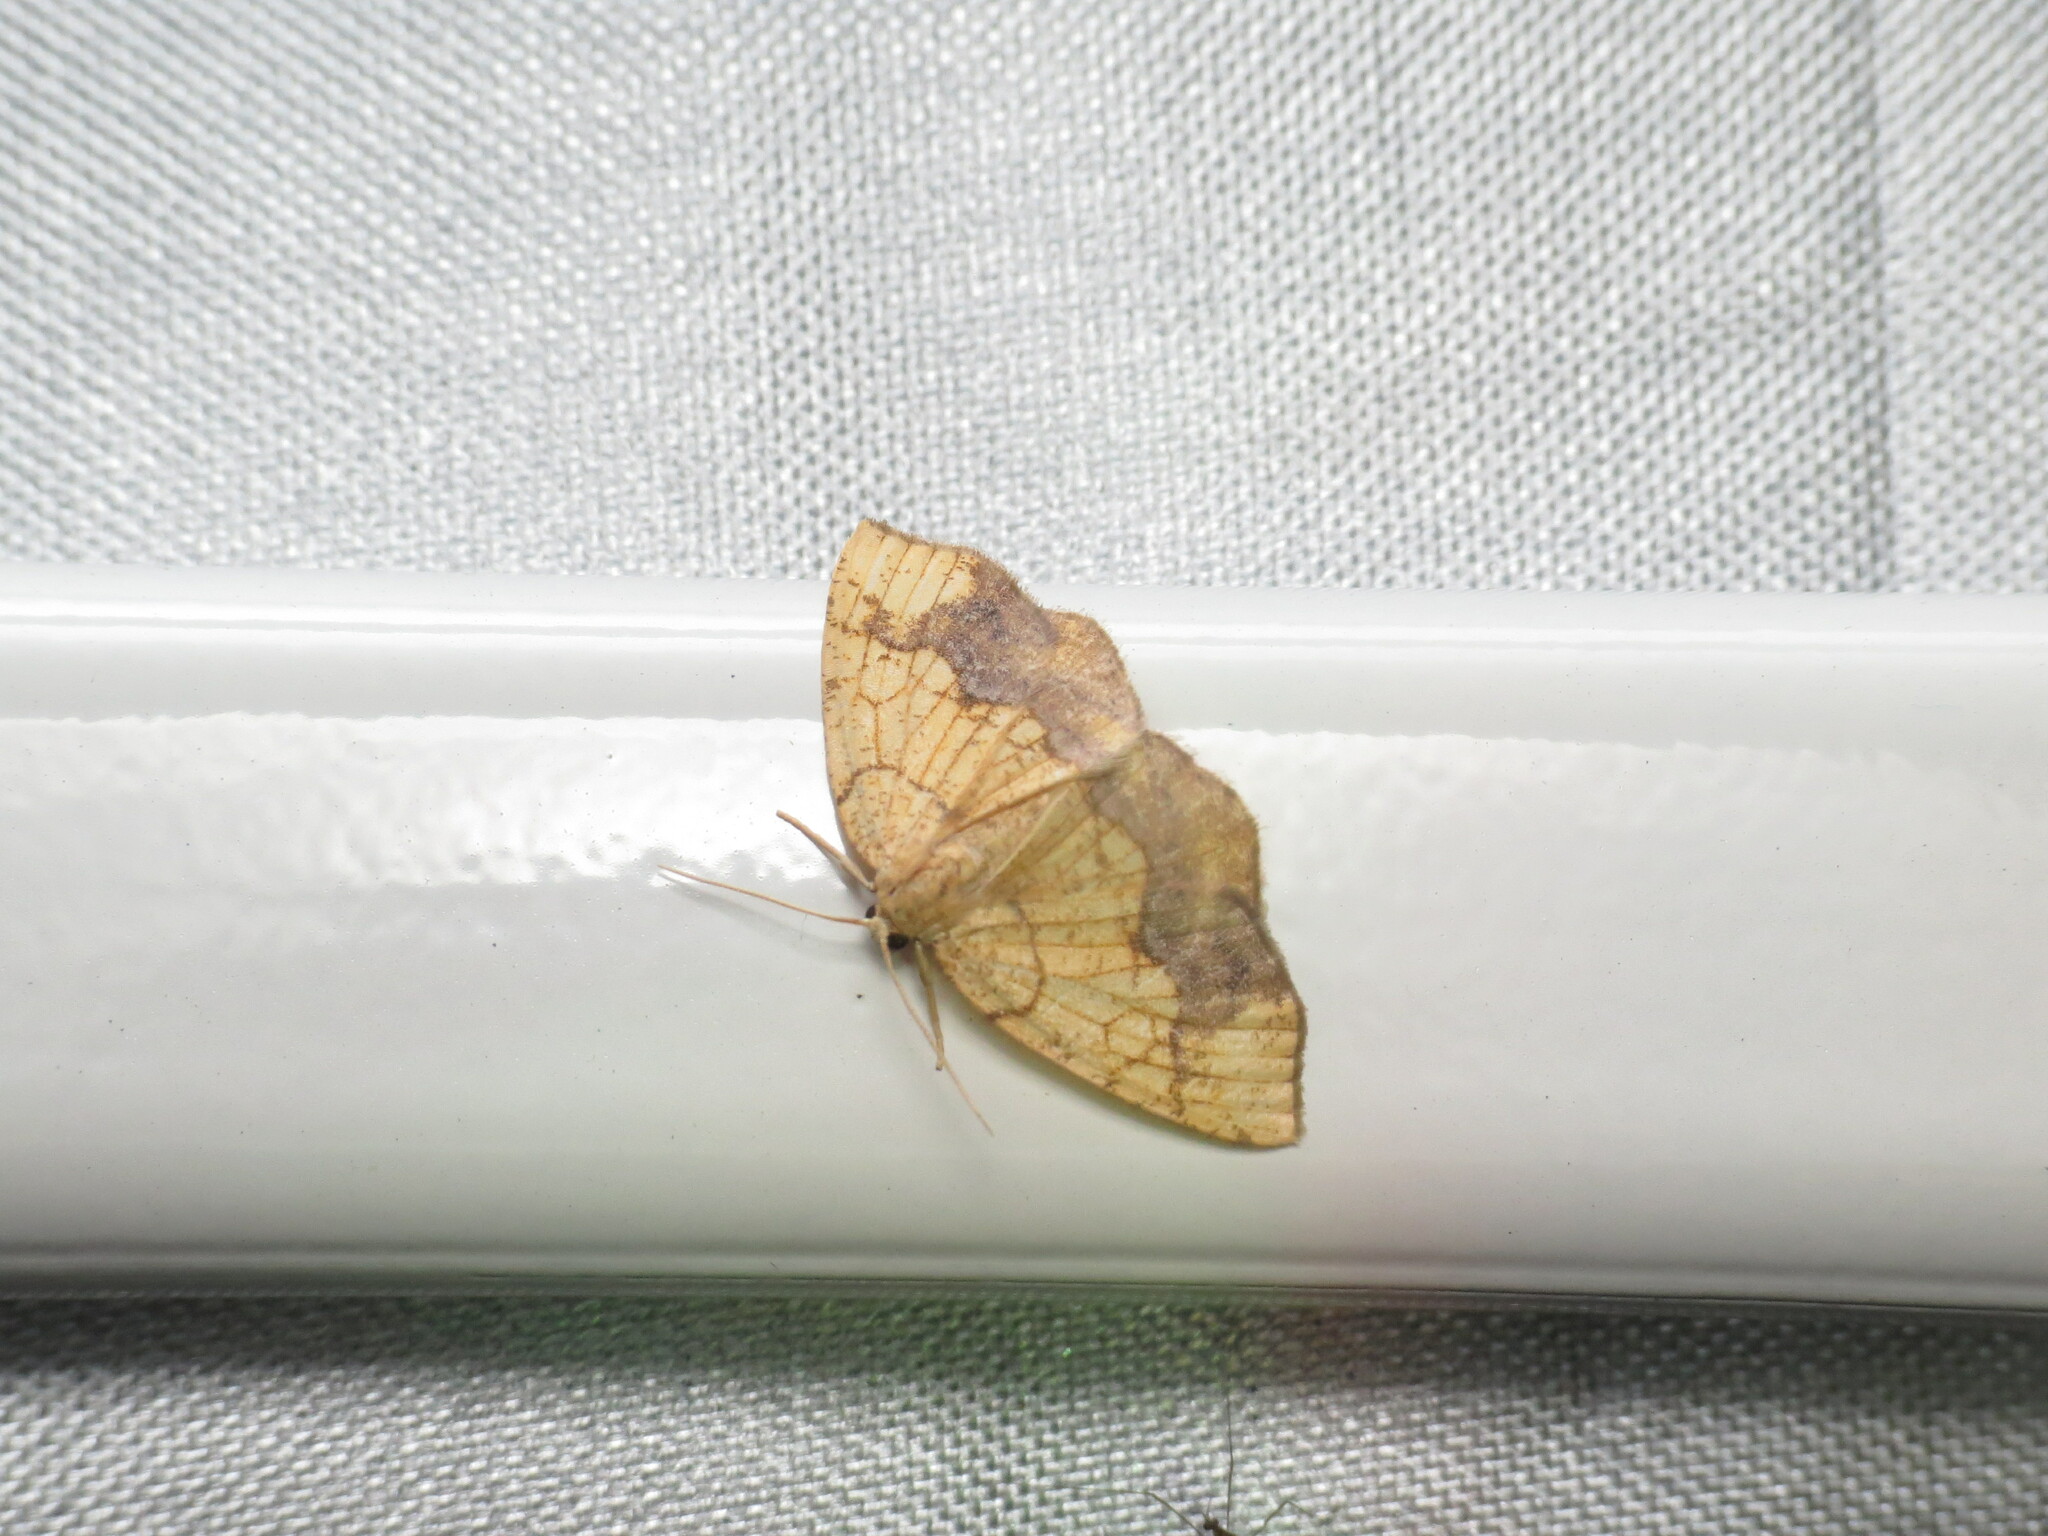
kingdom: Animalia
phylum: Arthropoda
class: Insecta
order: Lepidoptera
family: Geometridae
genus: Nematocampa
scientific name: Nematocampa resistaria
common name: Horned spanworm moth
